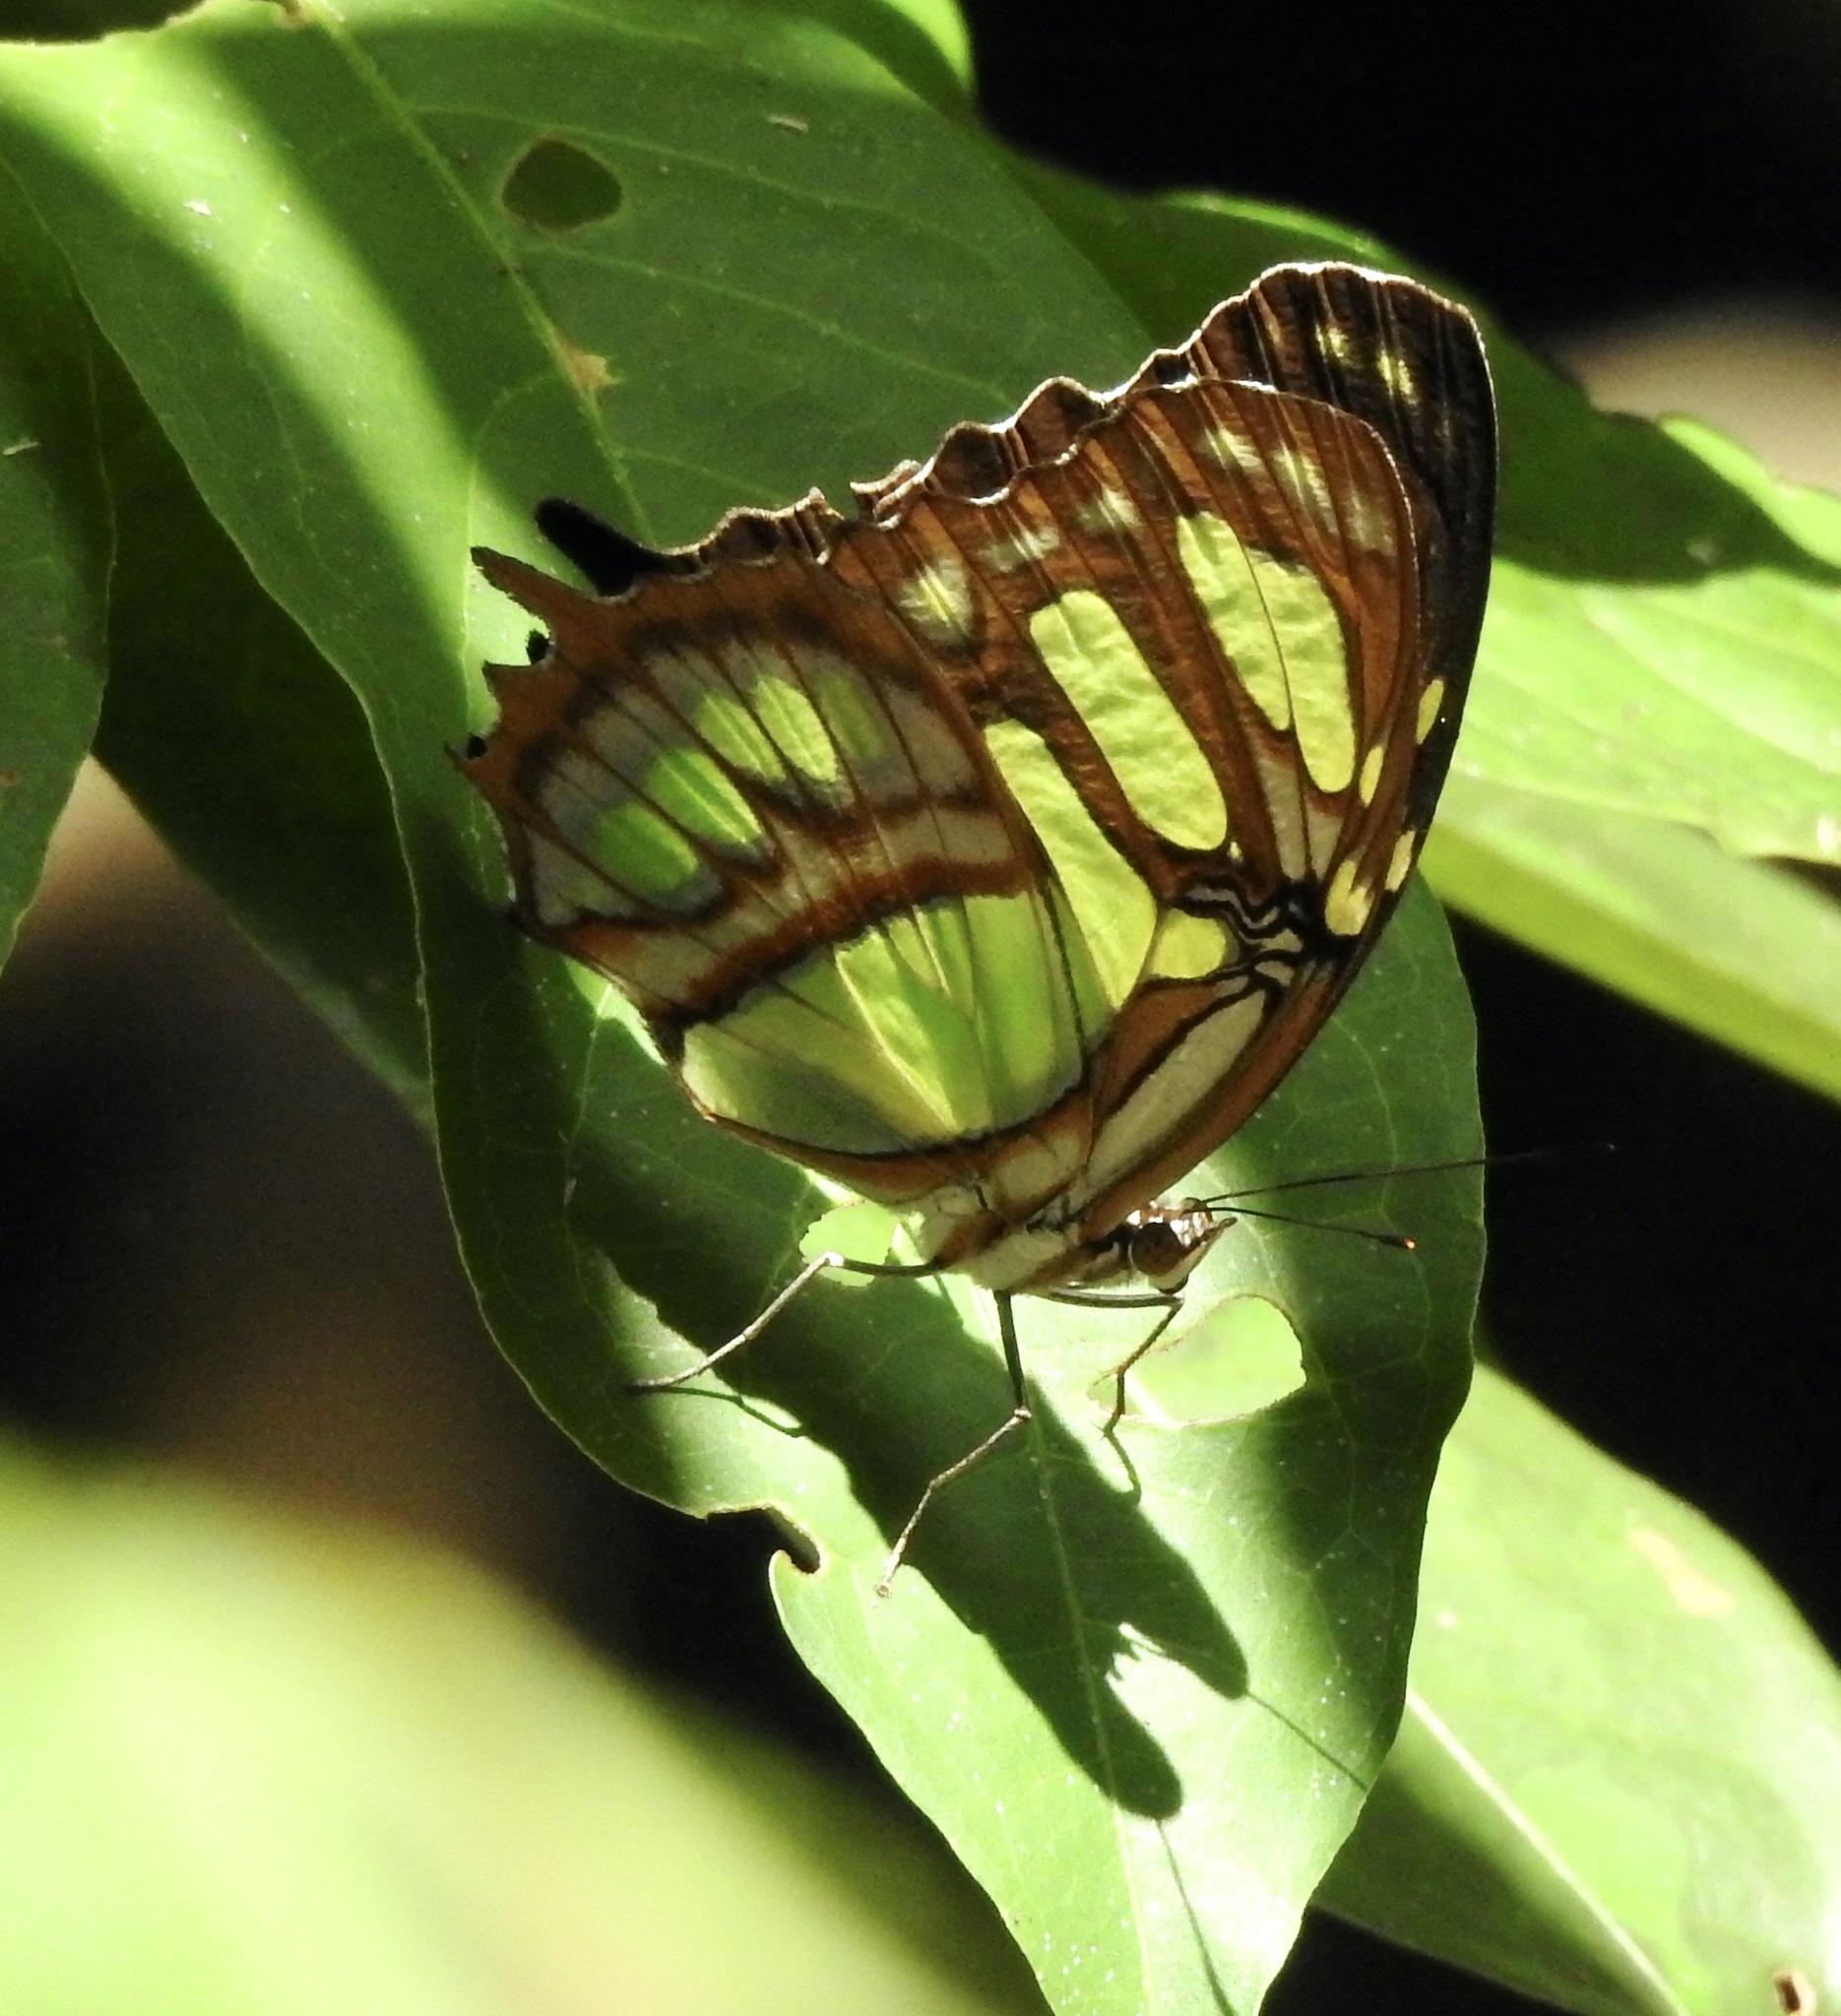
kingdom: Animalia
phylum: Arthropoda
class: Insecta
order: Lepidoptera
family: Nymphalidae
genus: Siproeta
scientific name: Siproeta stelenes
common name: Malachite
